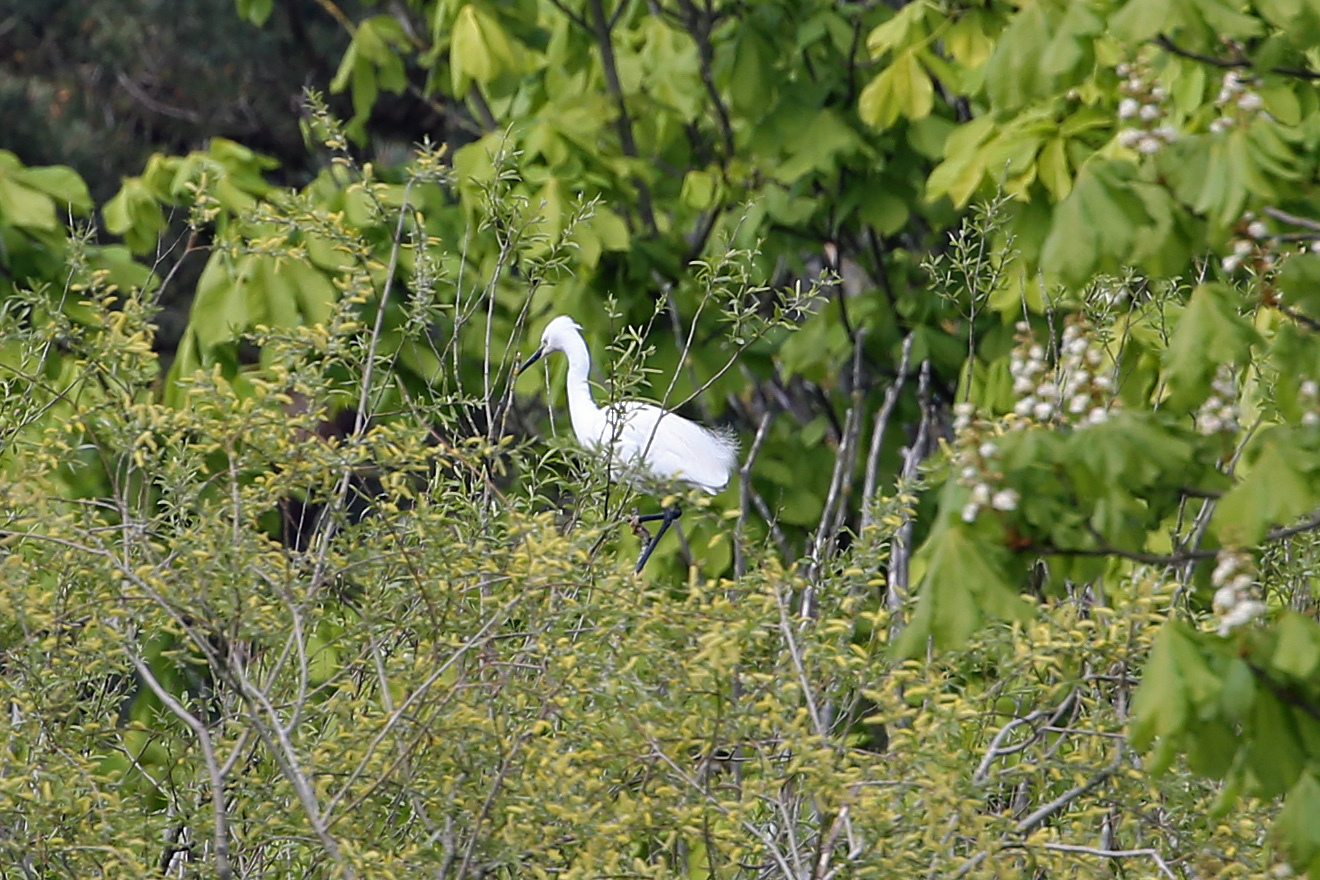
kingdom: Animalia
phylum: Chordata
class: Aves
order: Pelecaniformes
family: Ardeidae
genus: Egretta
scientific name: Egretta garzetta
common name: Little egret
